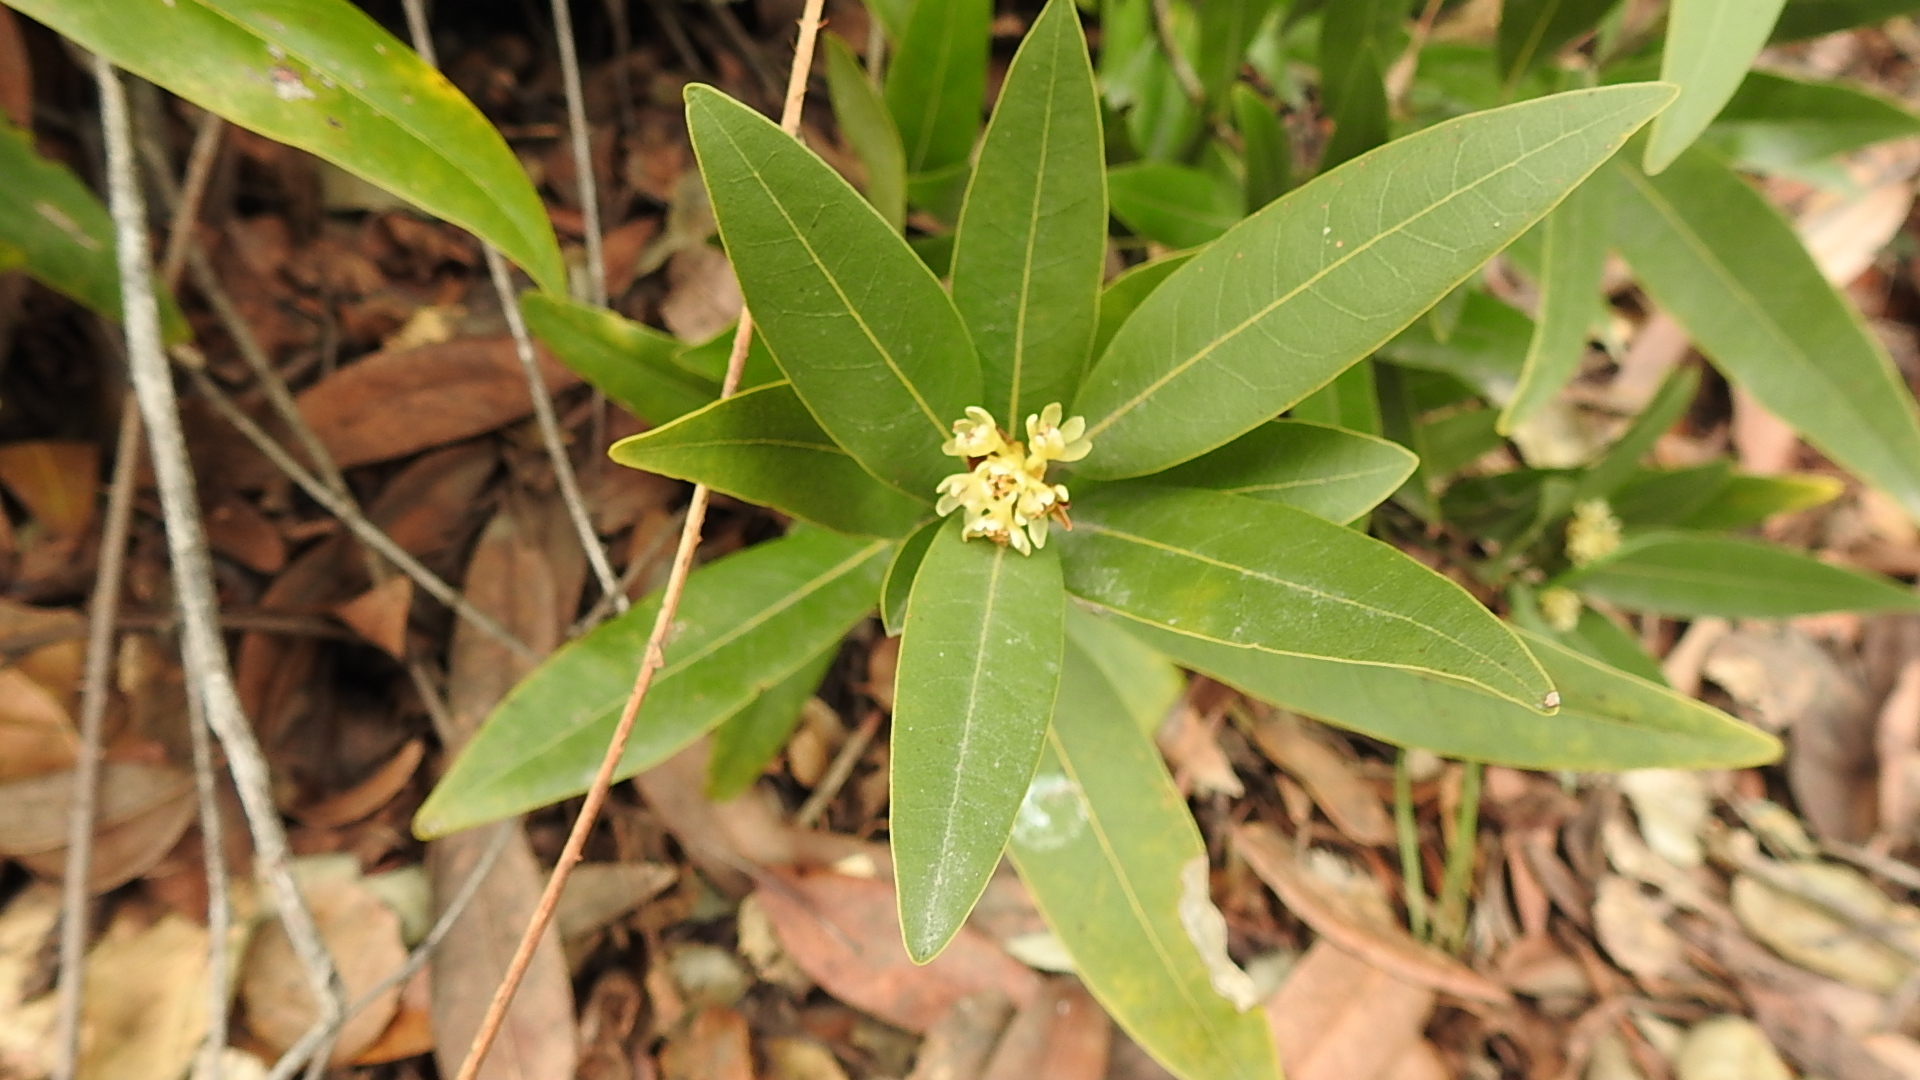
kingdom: Plantae
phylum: Tracheophyta
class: Magnoliopsida
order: Laurales
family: Lauraceae
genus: Umbellularia
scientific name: Umbellularia californica
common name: California bay
